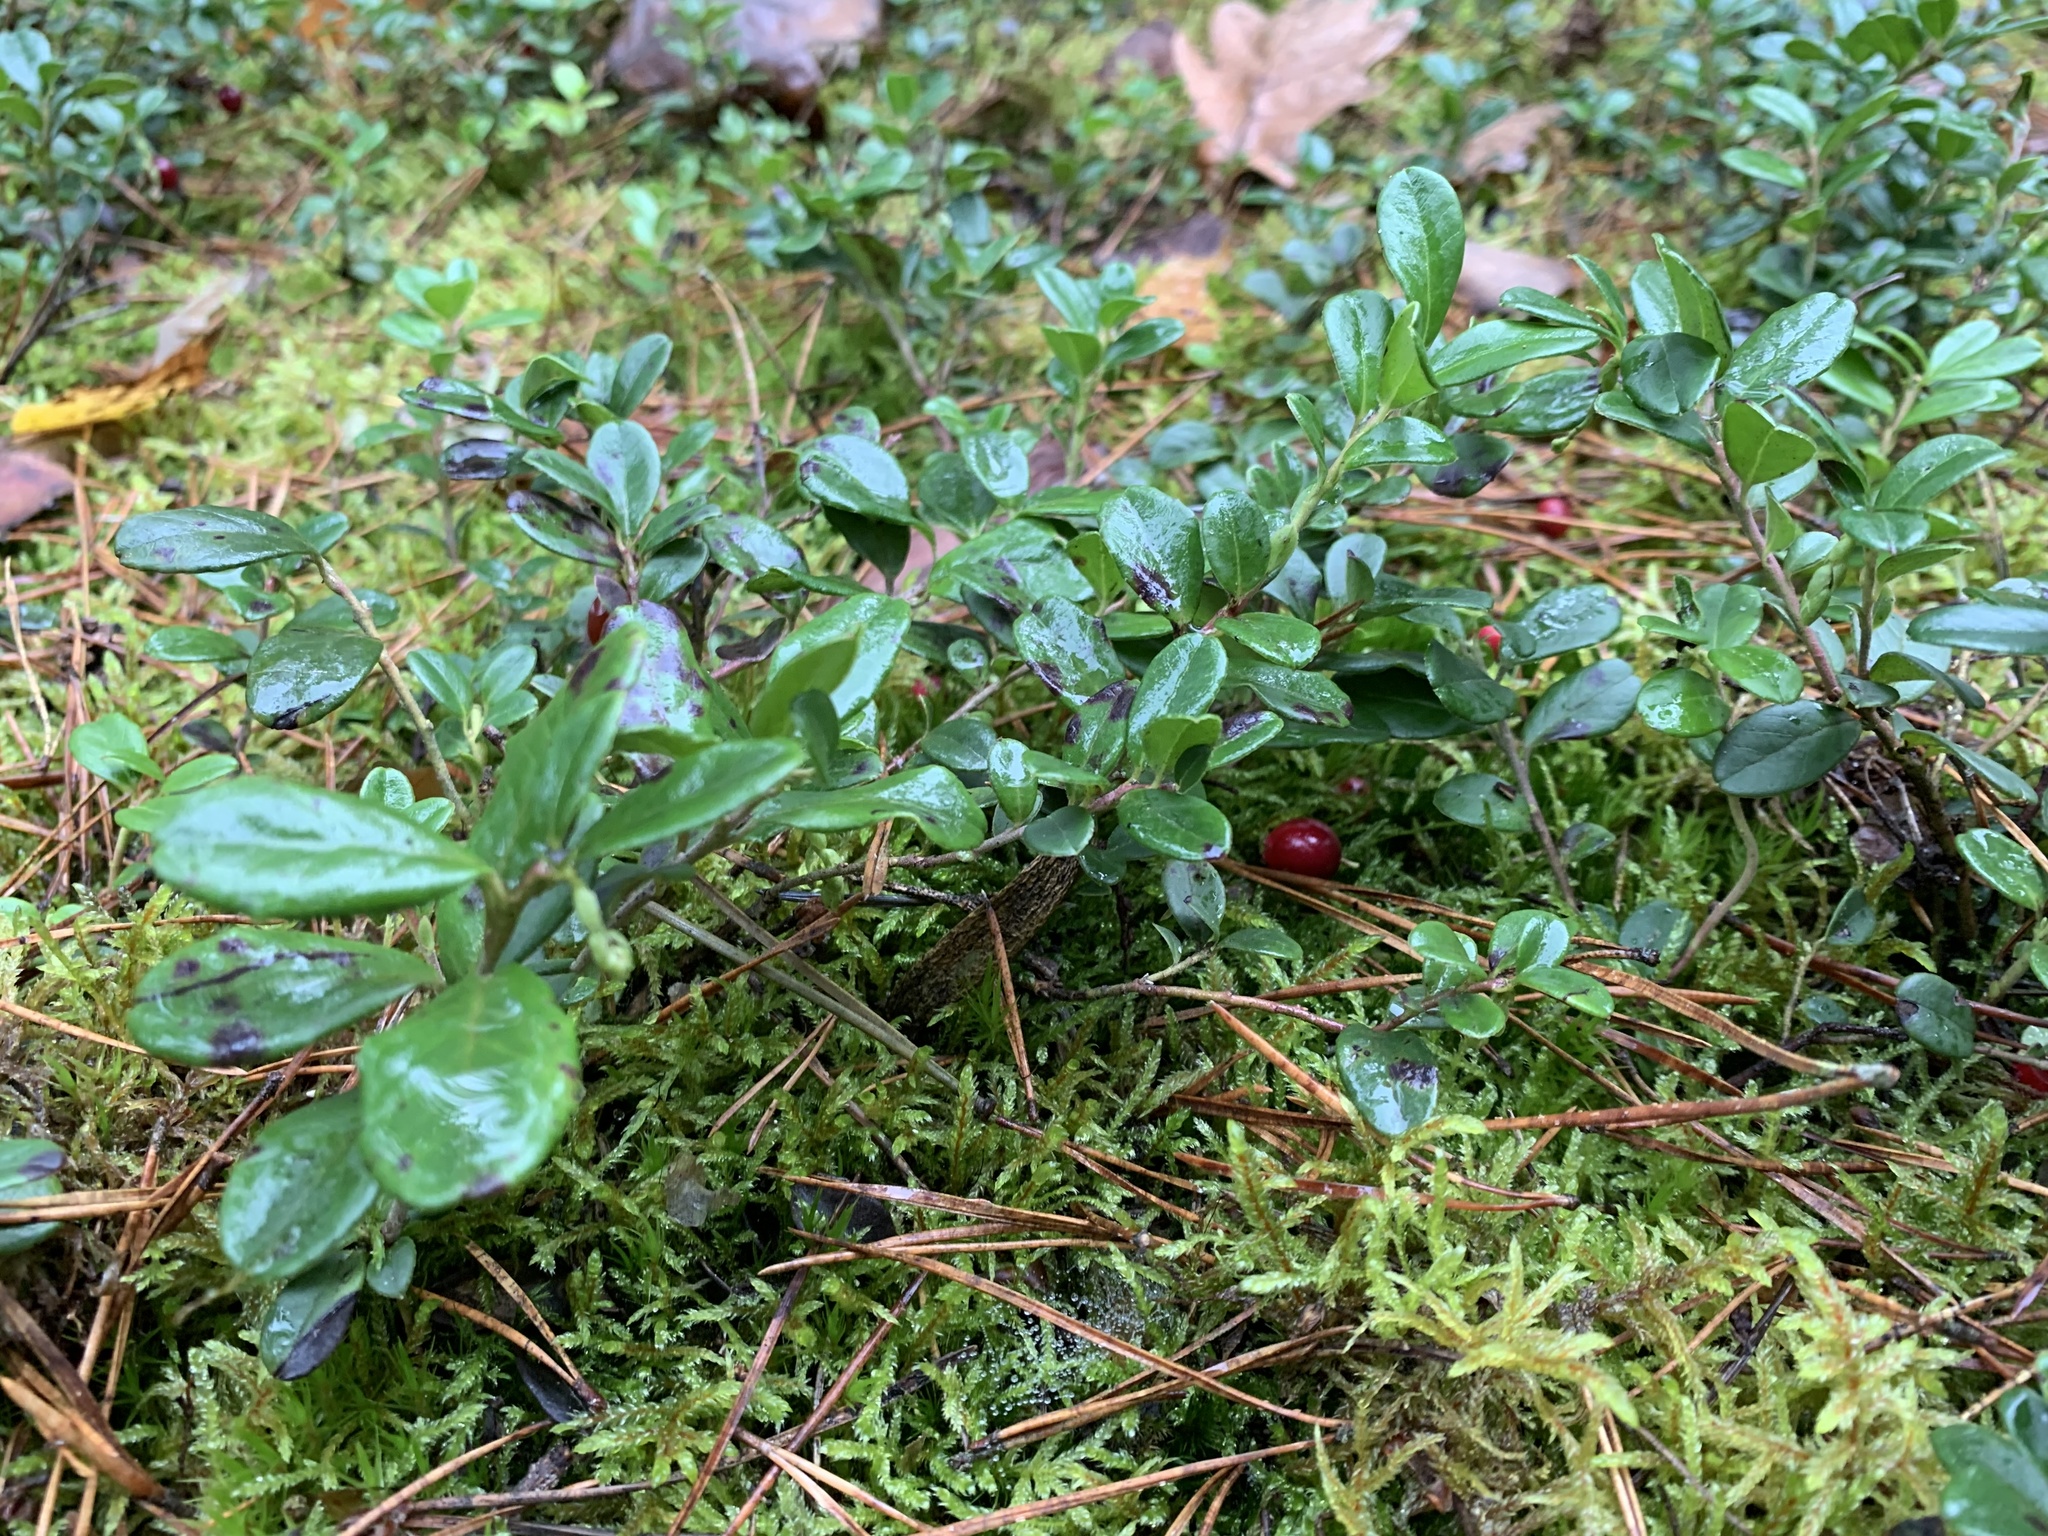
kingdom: Plantae
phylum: Tracheophyta
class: Magnoliopsida
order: Ericales
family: Ericaceae
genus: Vaccinium
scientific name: Vaccinium vitis-idaea
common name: Cowberry
